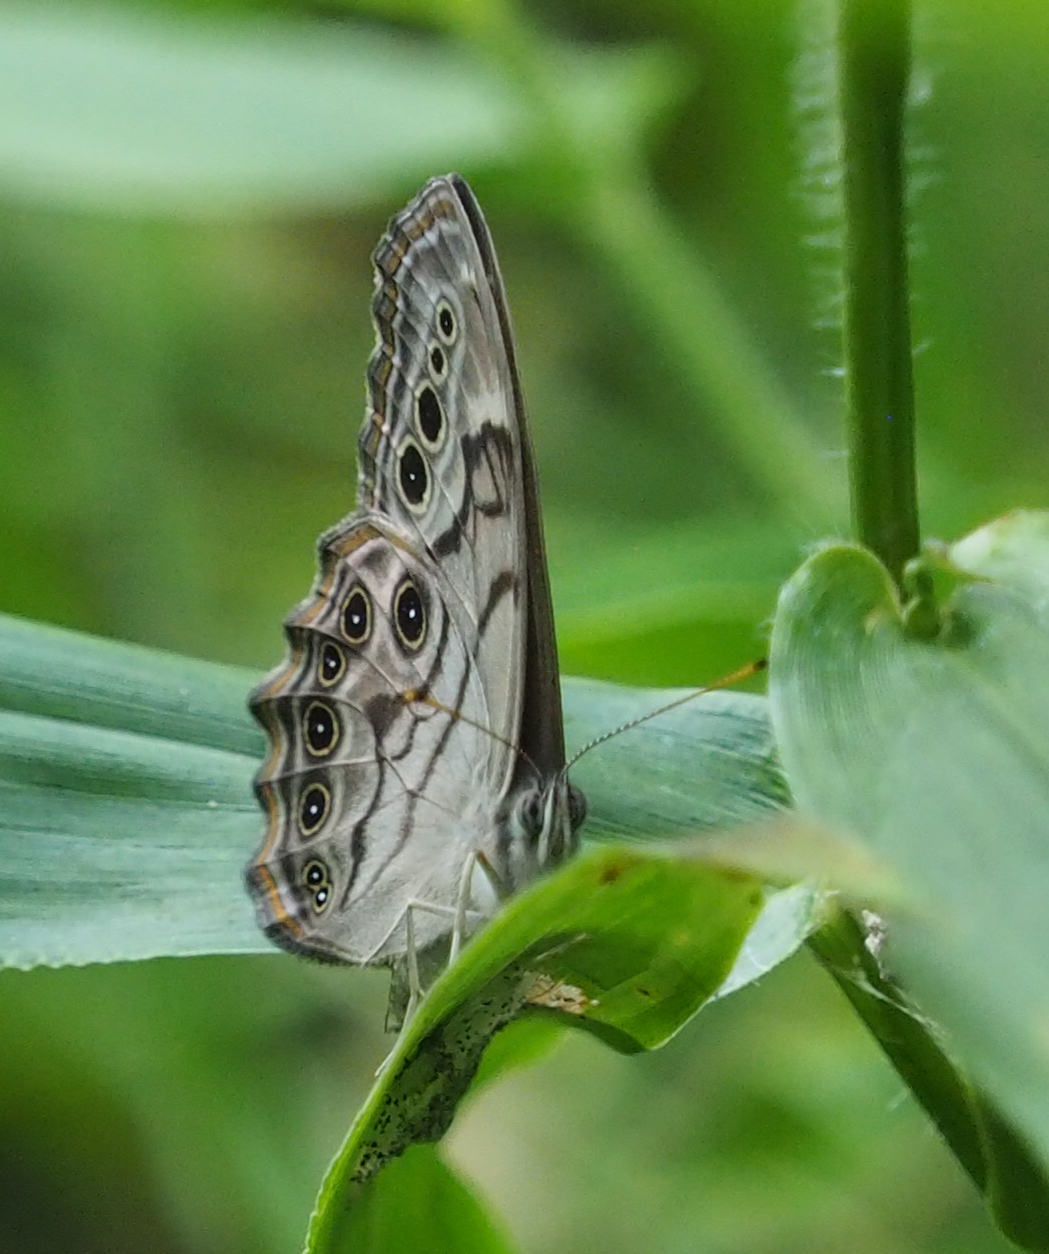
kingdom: Animalia
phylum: Arthropoda
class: Insecta
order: Lepidoptera
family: Nymphalidae
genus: Lethe
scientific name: Lethe anthedon
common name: Northern pearly-eye
